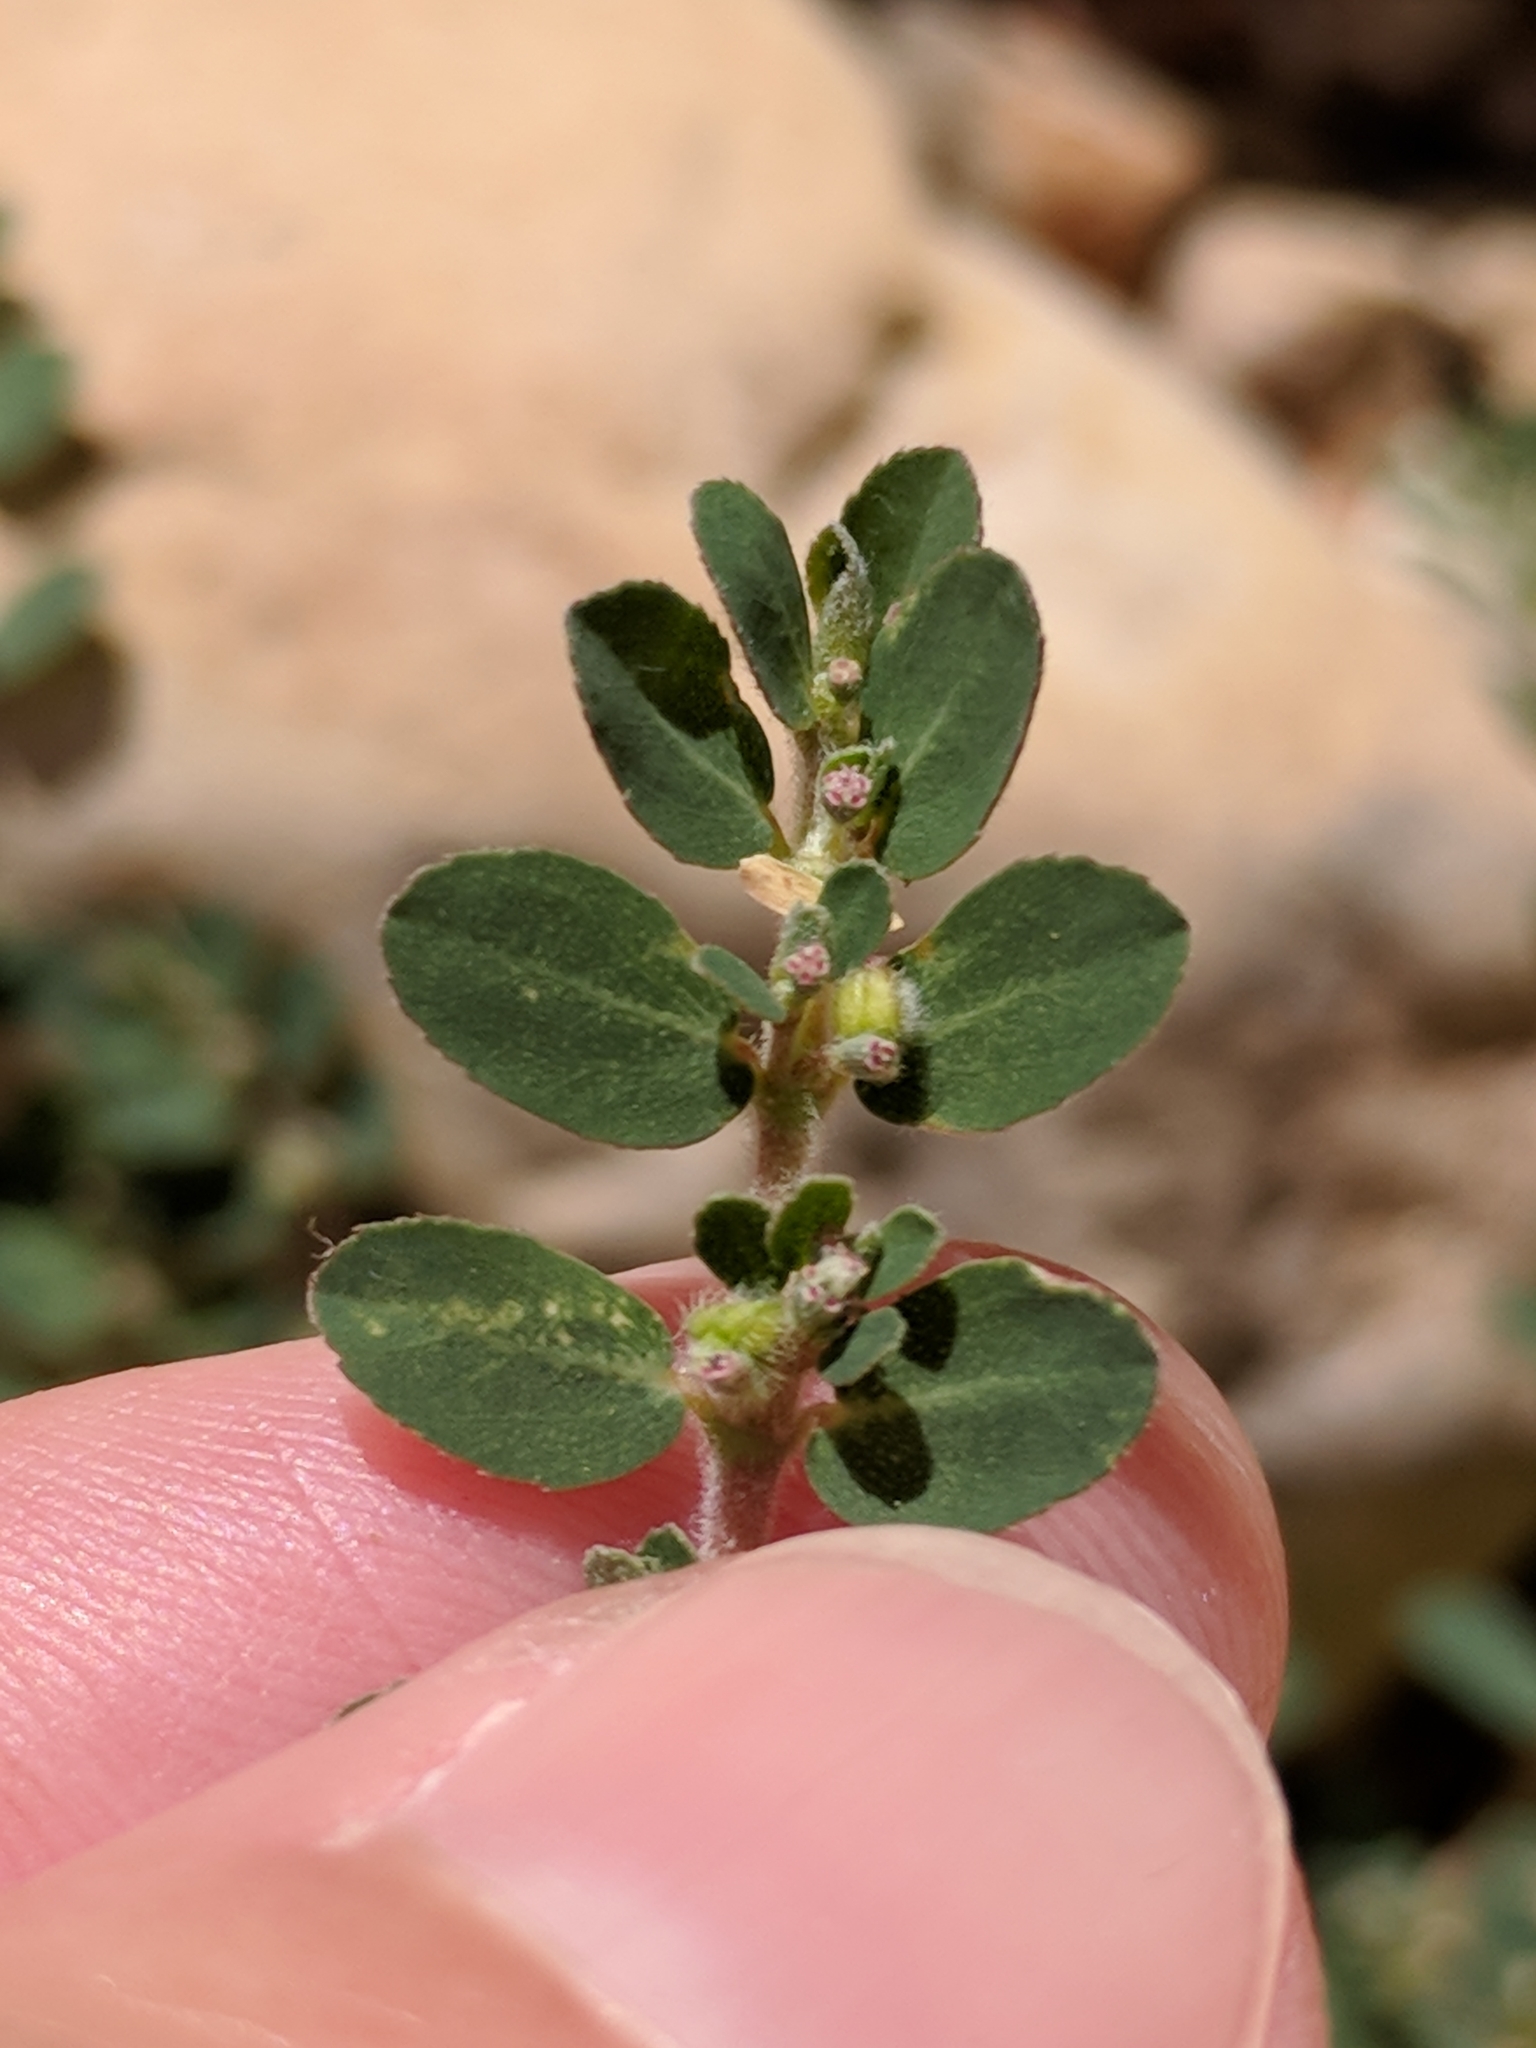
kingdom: Plantae
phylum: Tracheophyta
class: Magnoliopsida
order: Malpighiales
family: Euphorbiaceae
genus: Euphorbia
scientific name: Euphorbia prostrata
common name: Prostrate sandmat
